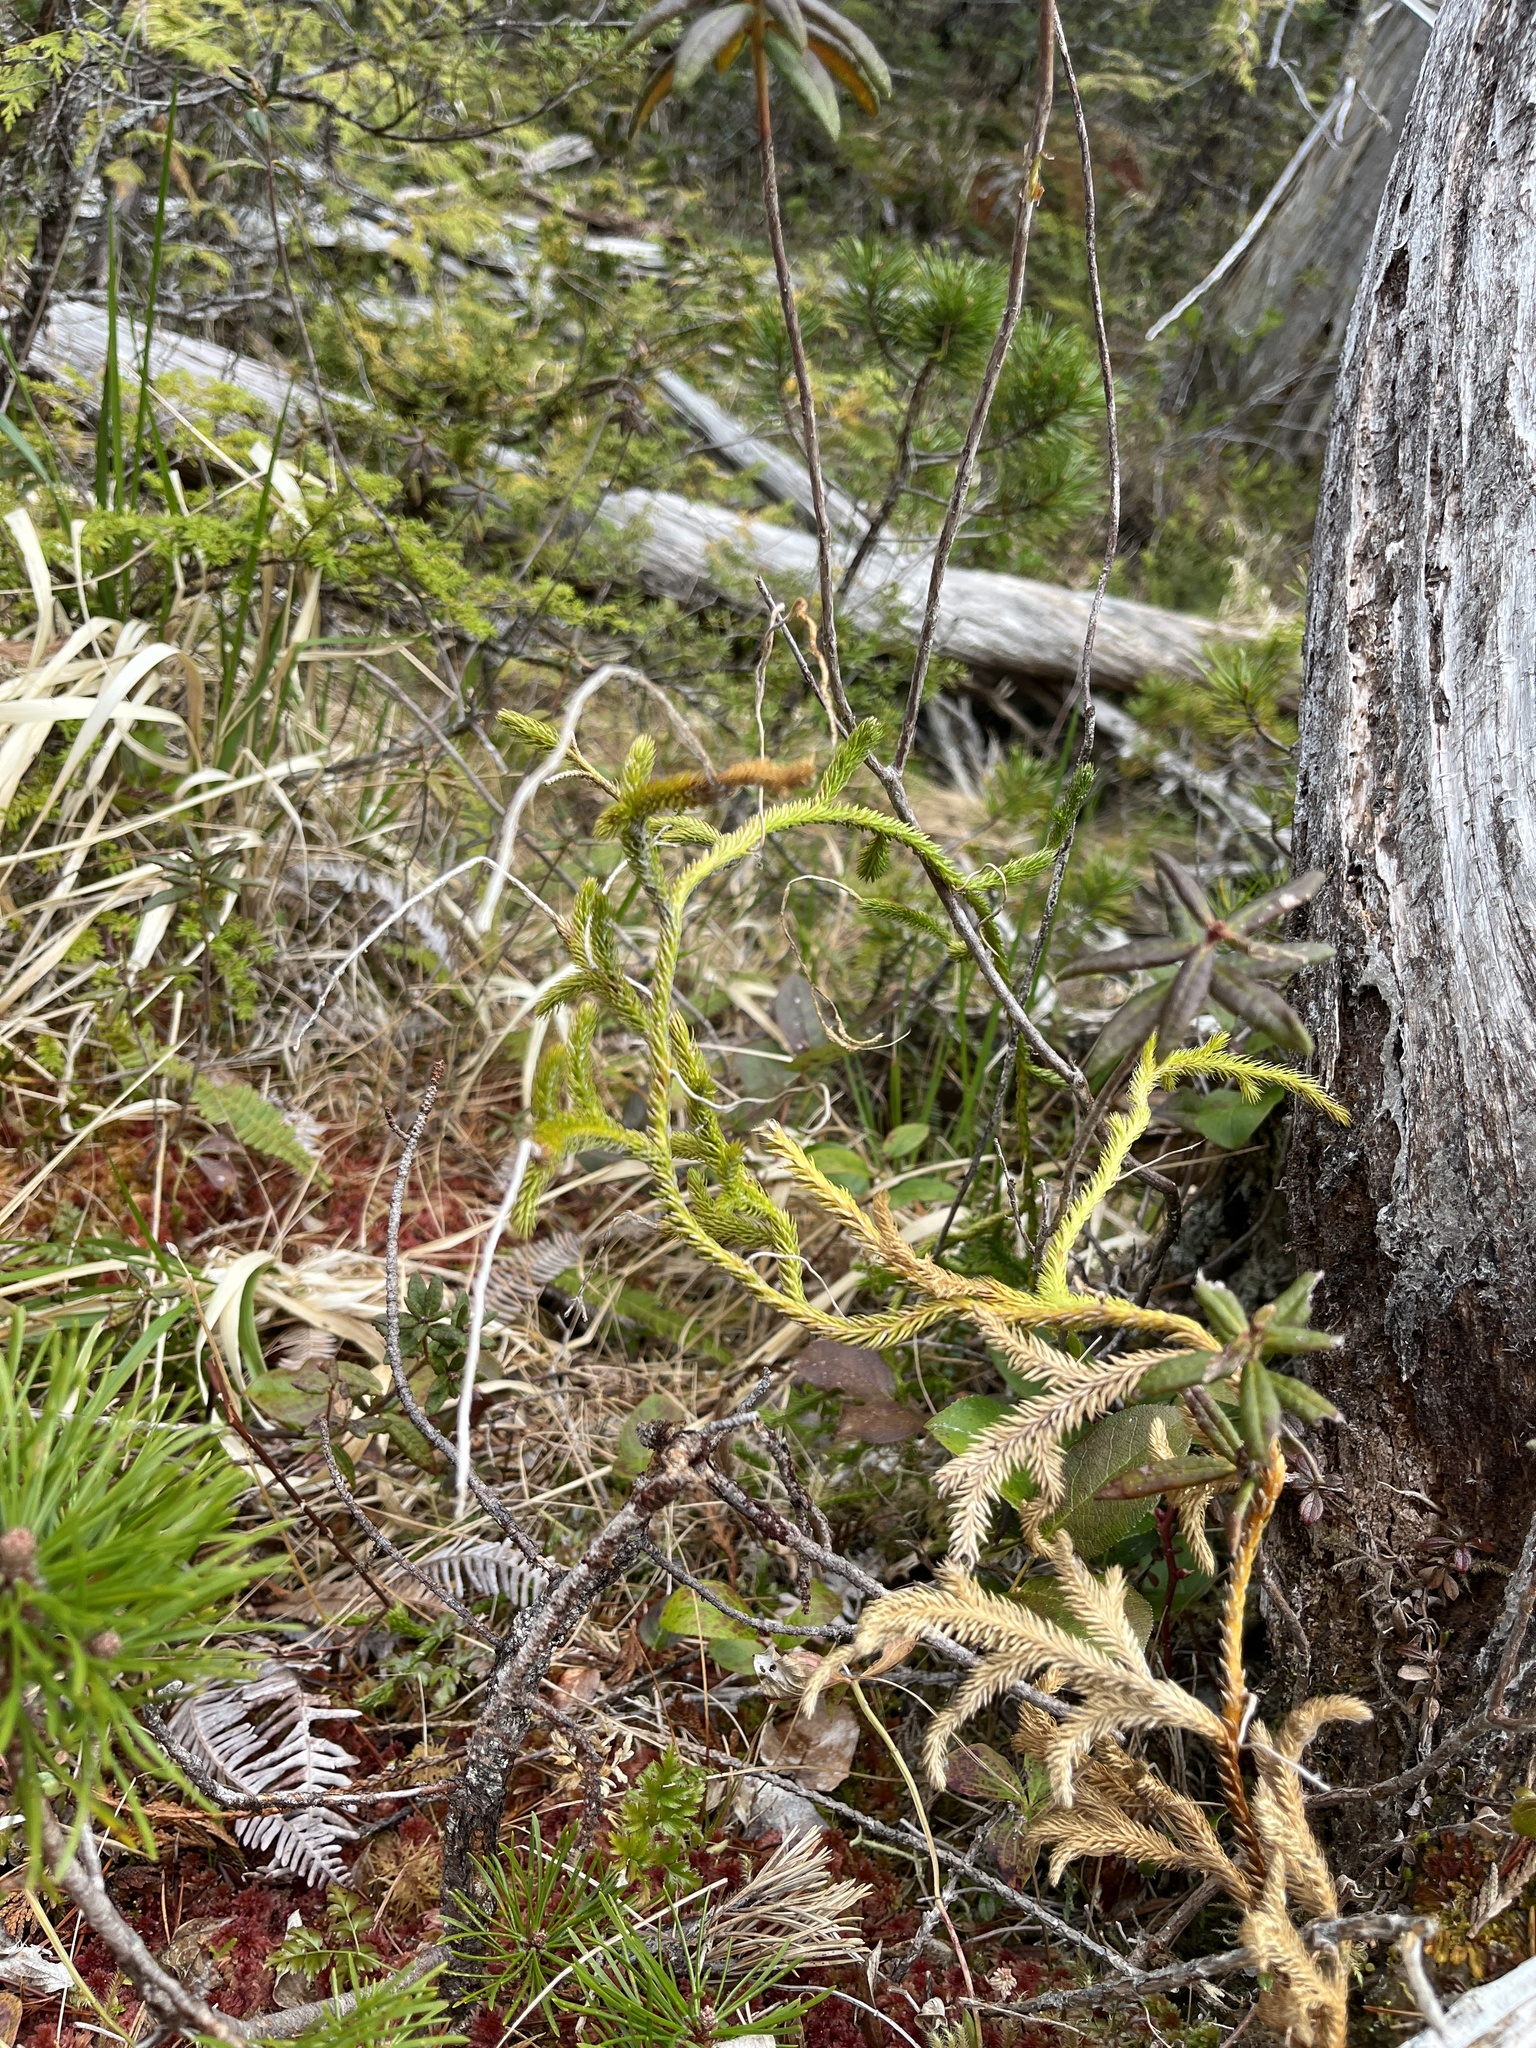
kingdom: Plantae
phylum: Tracheophyta
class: Lycopodiopsida
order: Lycopodiales
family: Lycopodiaceae
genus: Lycopodium
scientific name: Lycopodium clavatum
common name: Stag's-horn clubmoss
